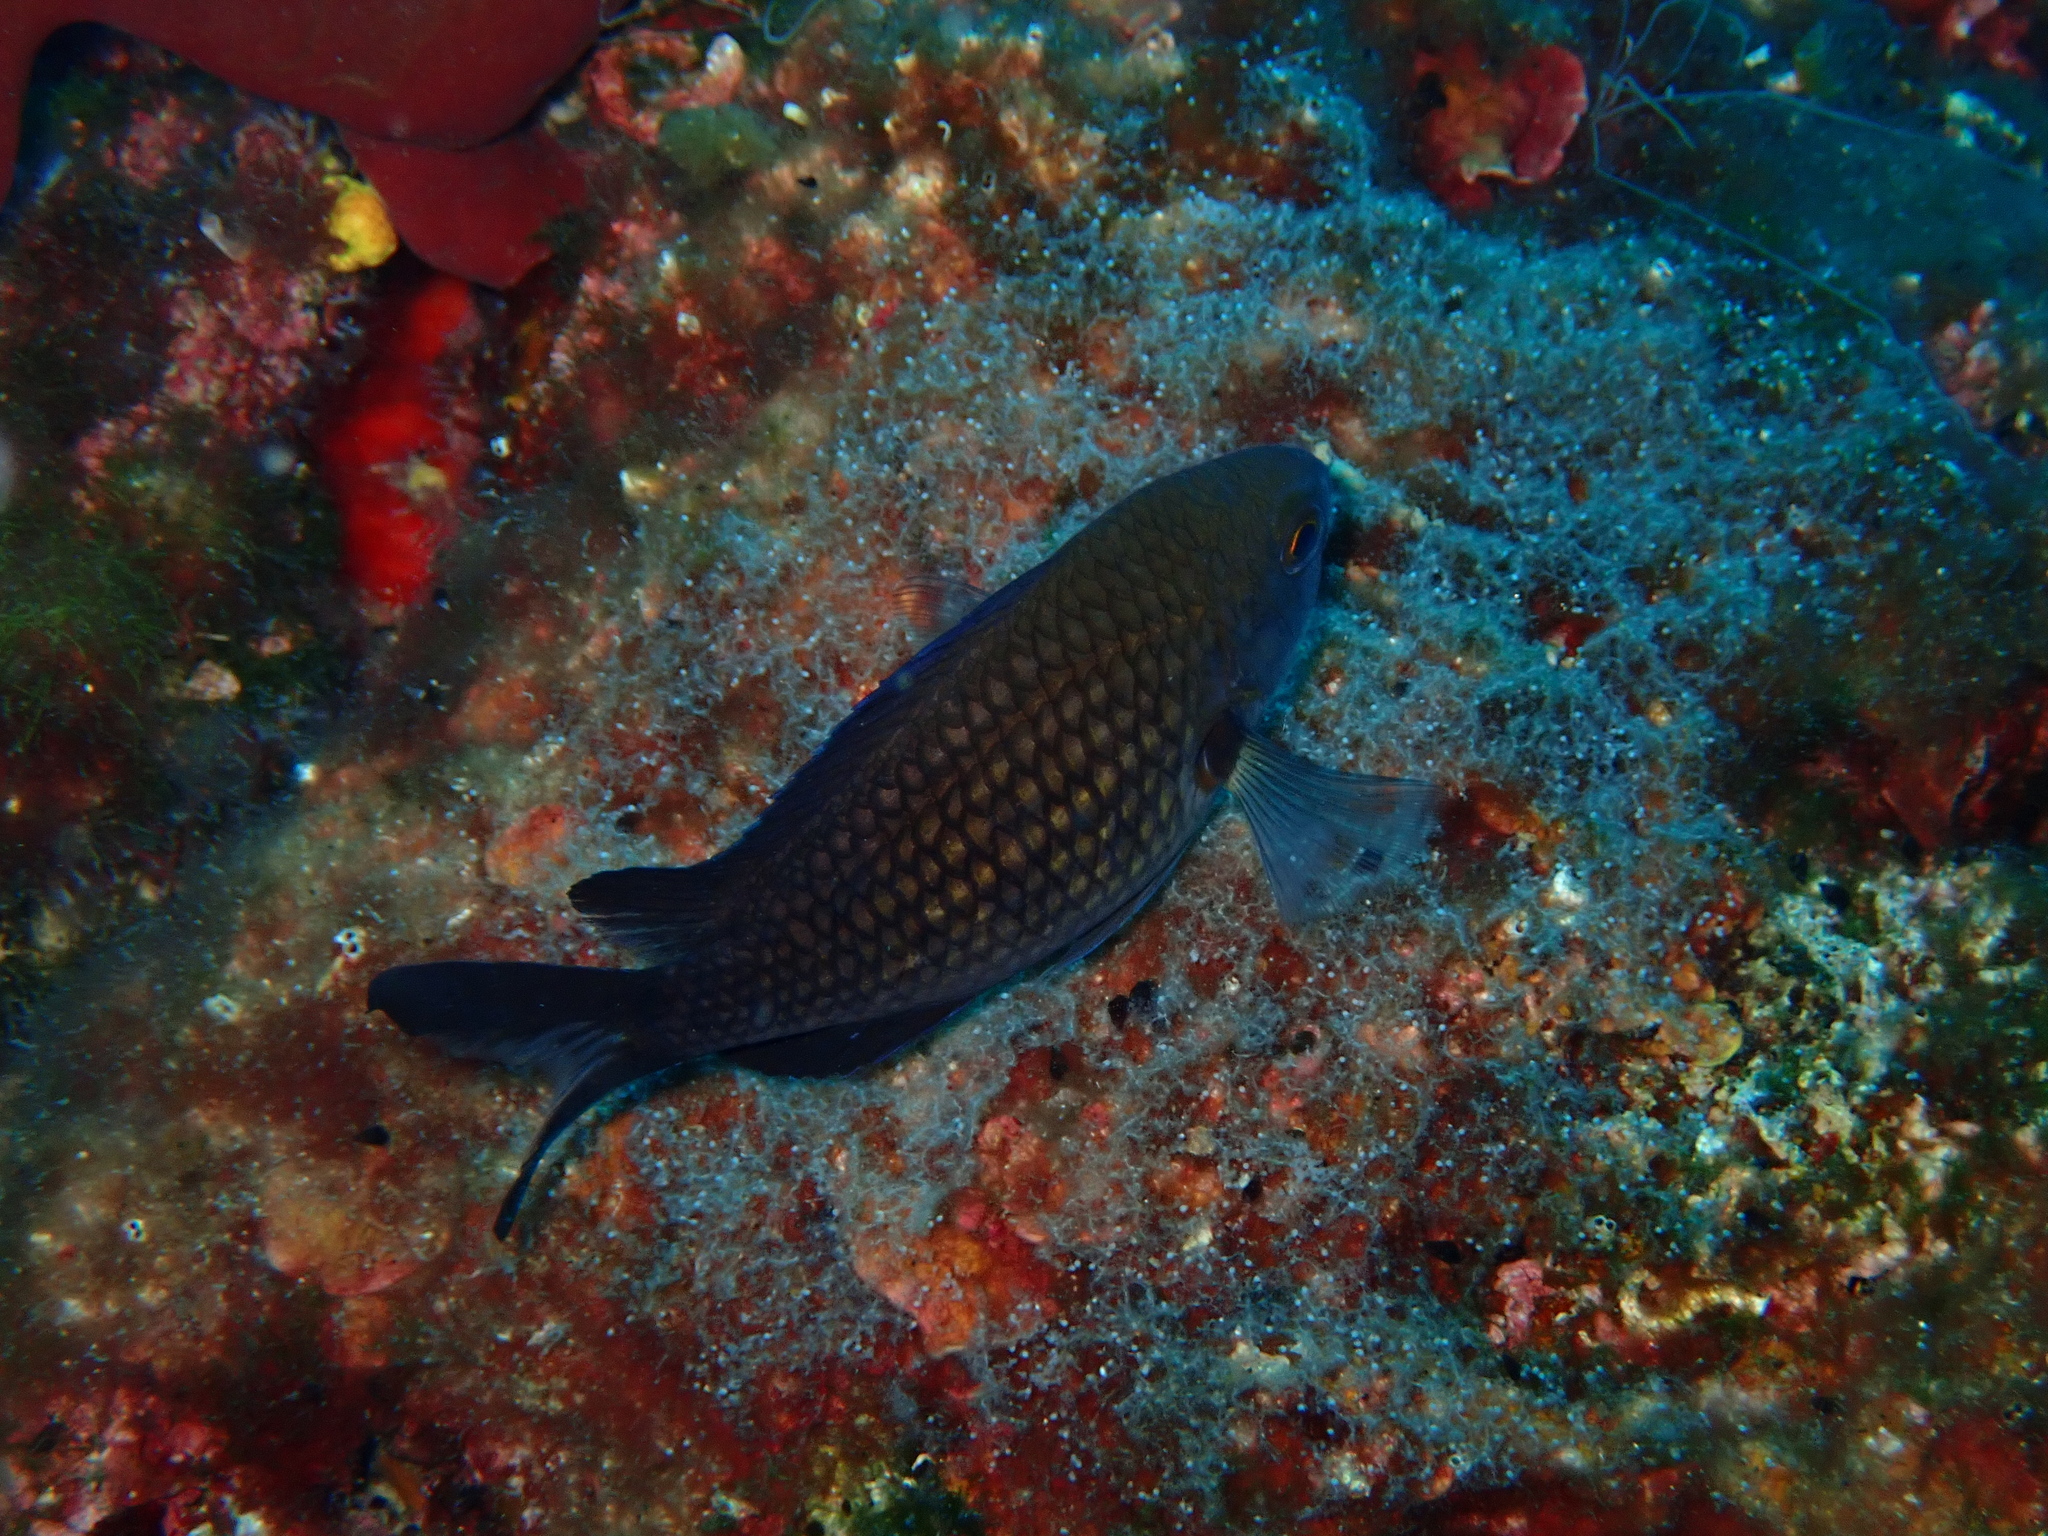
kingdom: Animalia
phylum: Chordata
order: Perciformes
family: Pomacentridae
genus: Chromis
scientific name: Chromis chromis
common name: Damselfish
